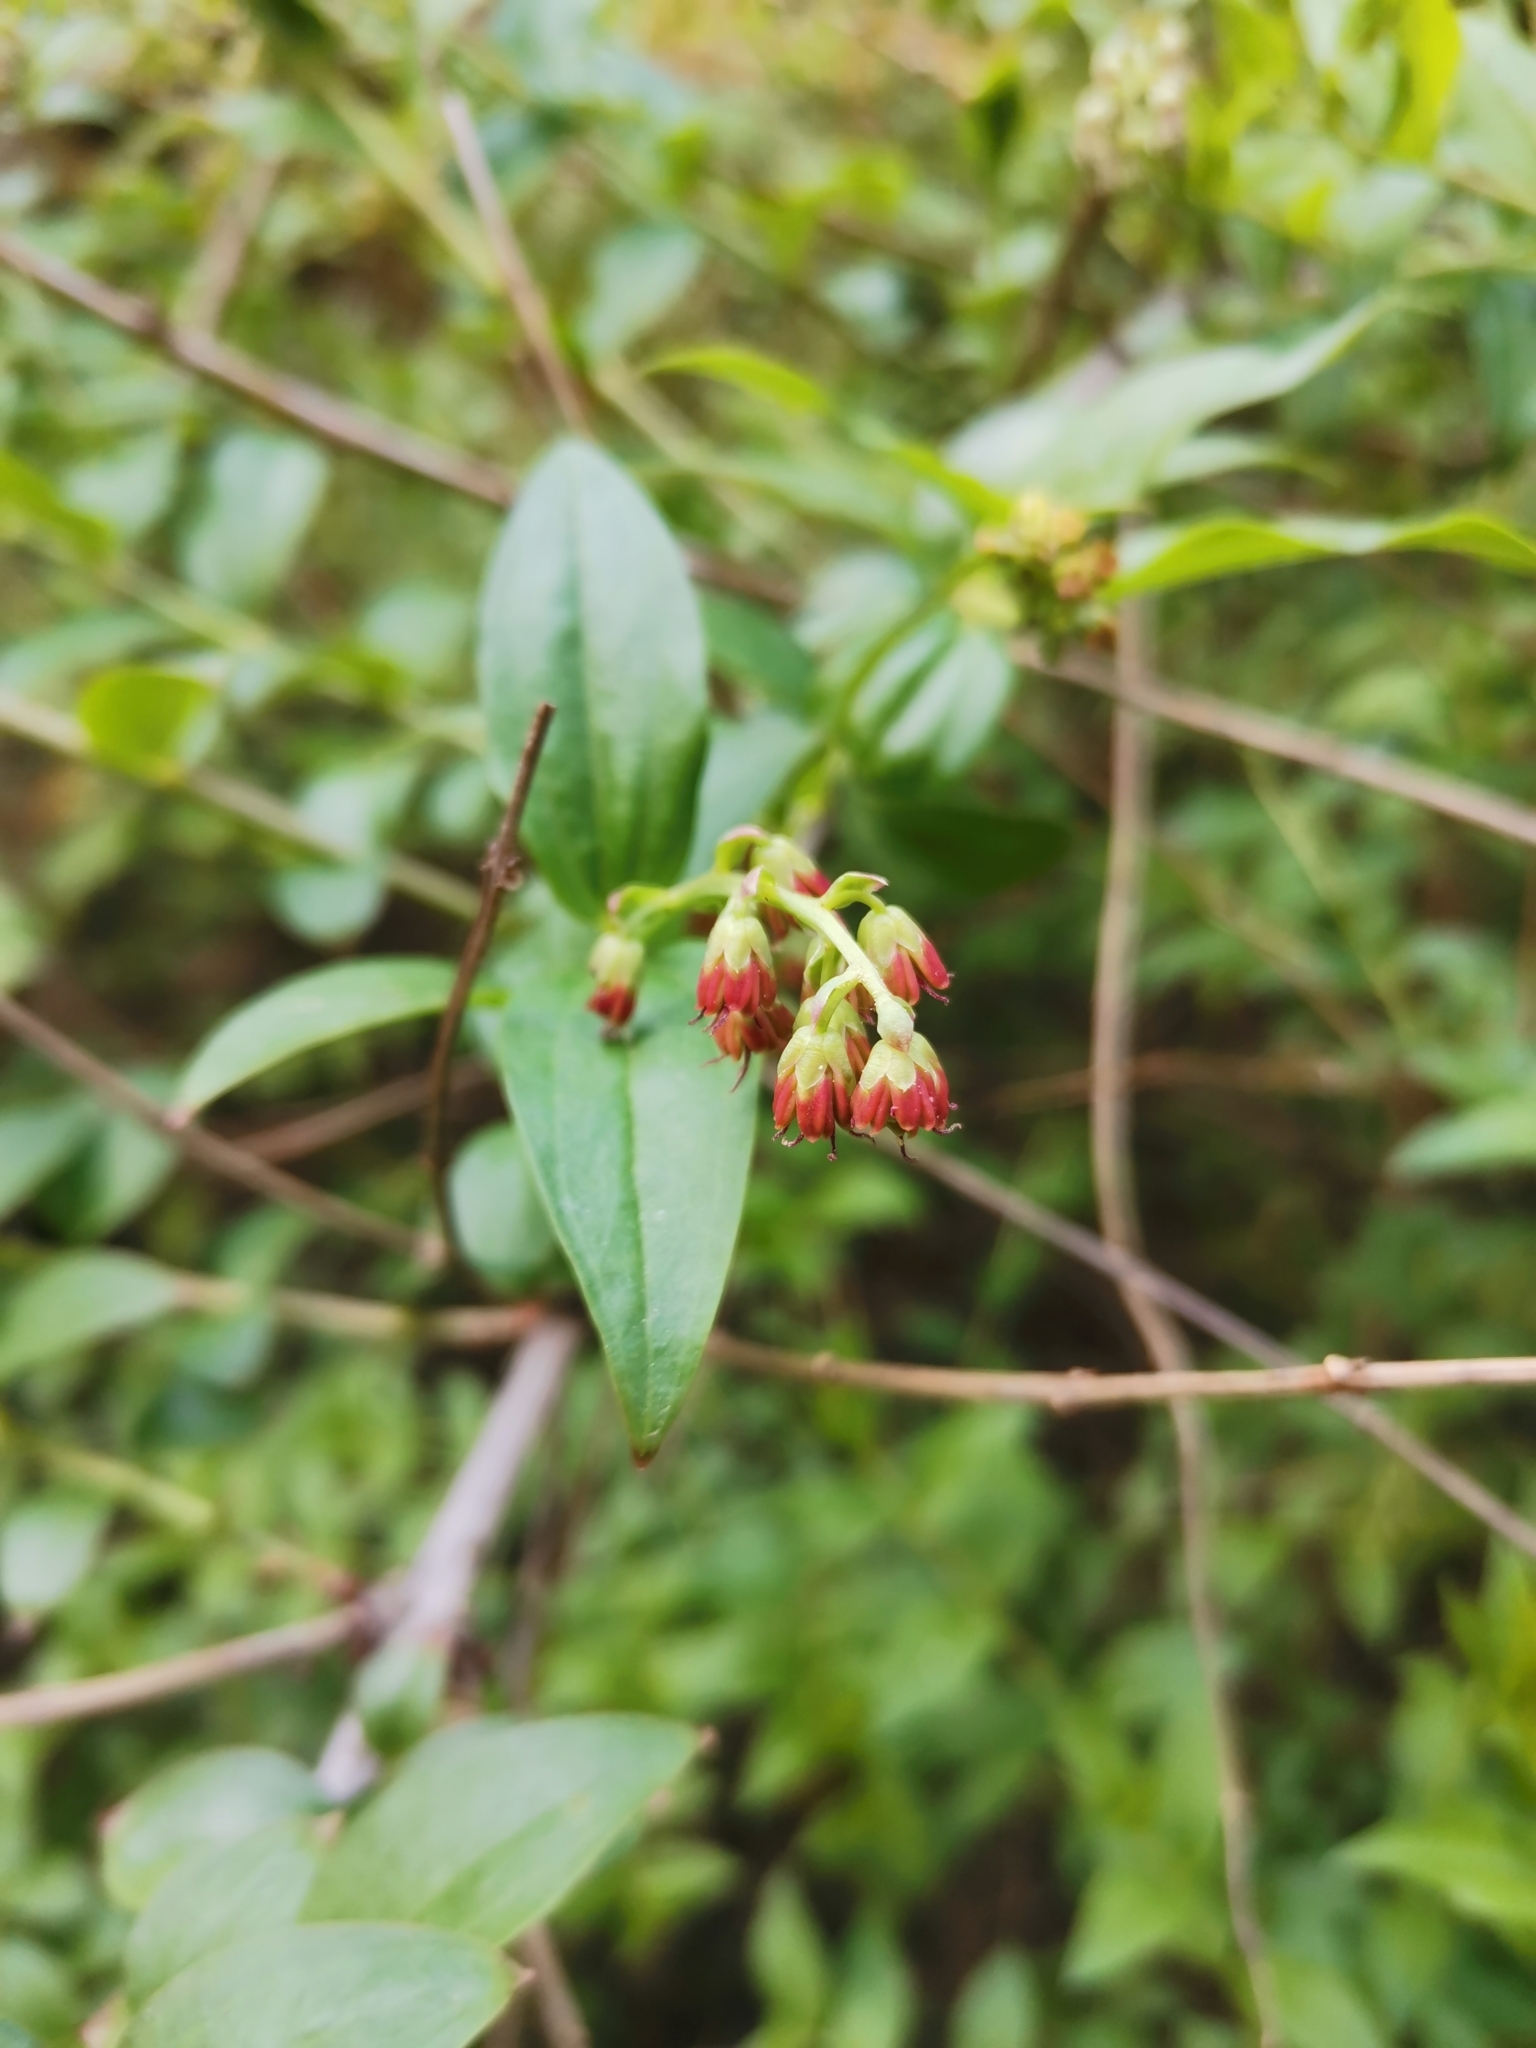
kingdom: Plantae
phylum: Tracheophyta
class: Magnoliopsida
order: Cucurbitales
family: Coriariaceae
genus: Coriaria
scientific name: Coriaria myrtifolia
